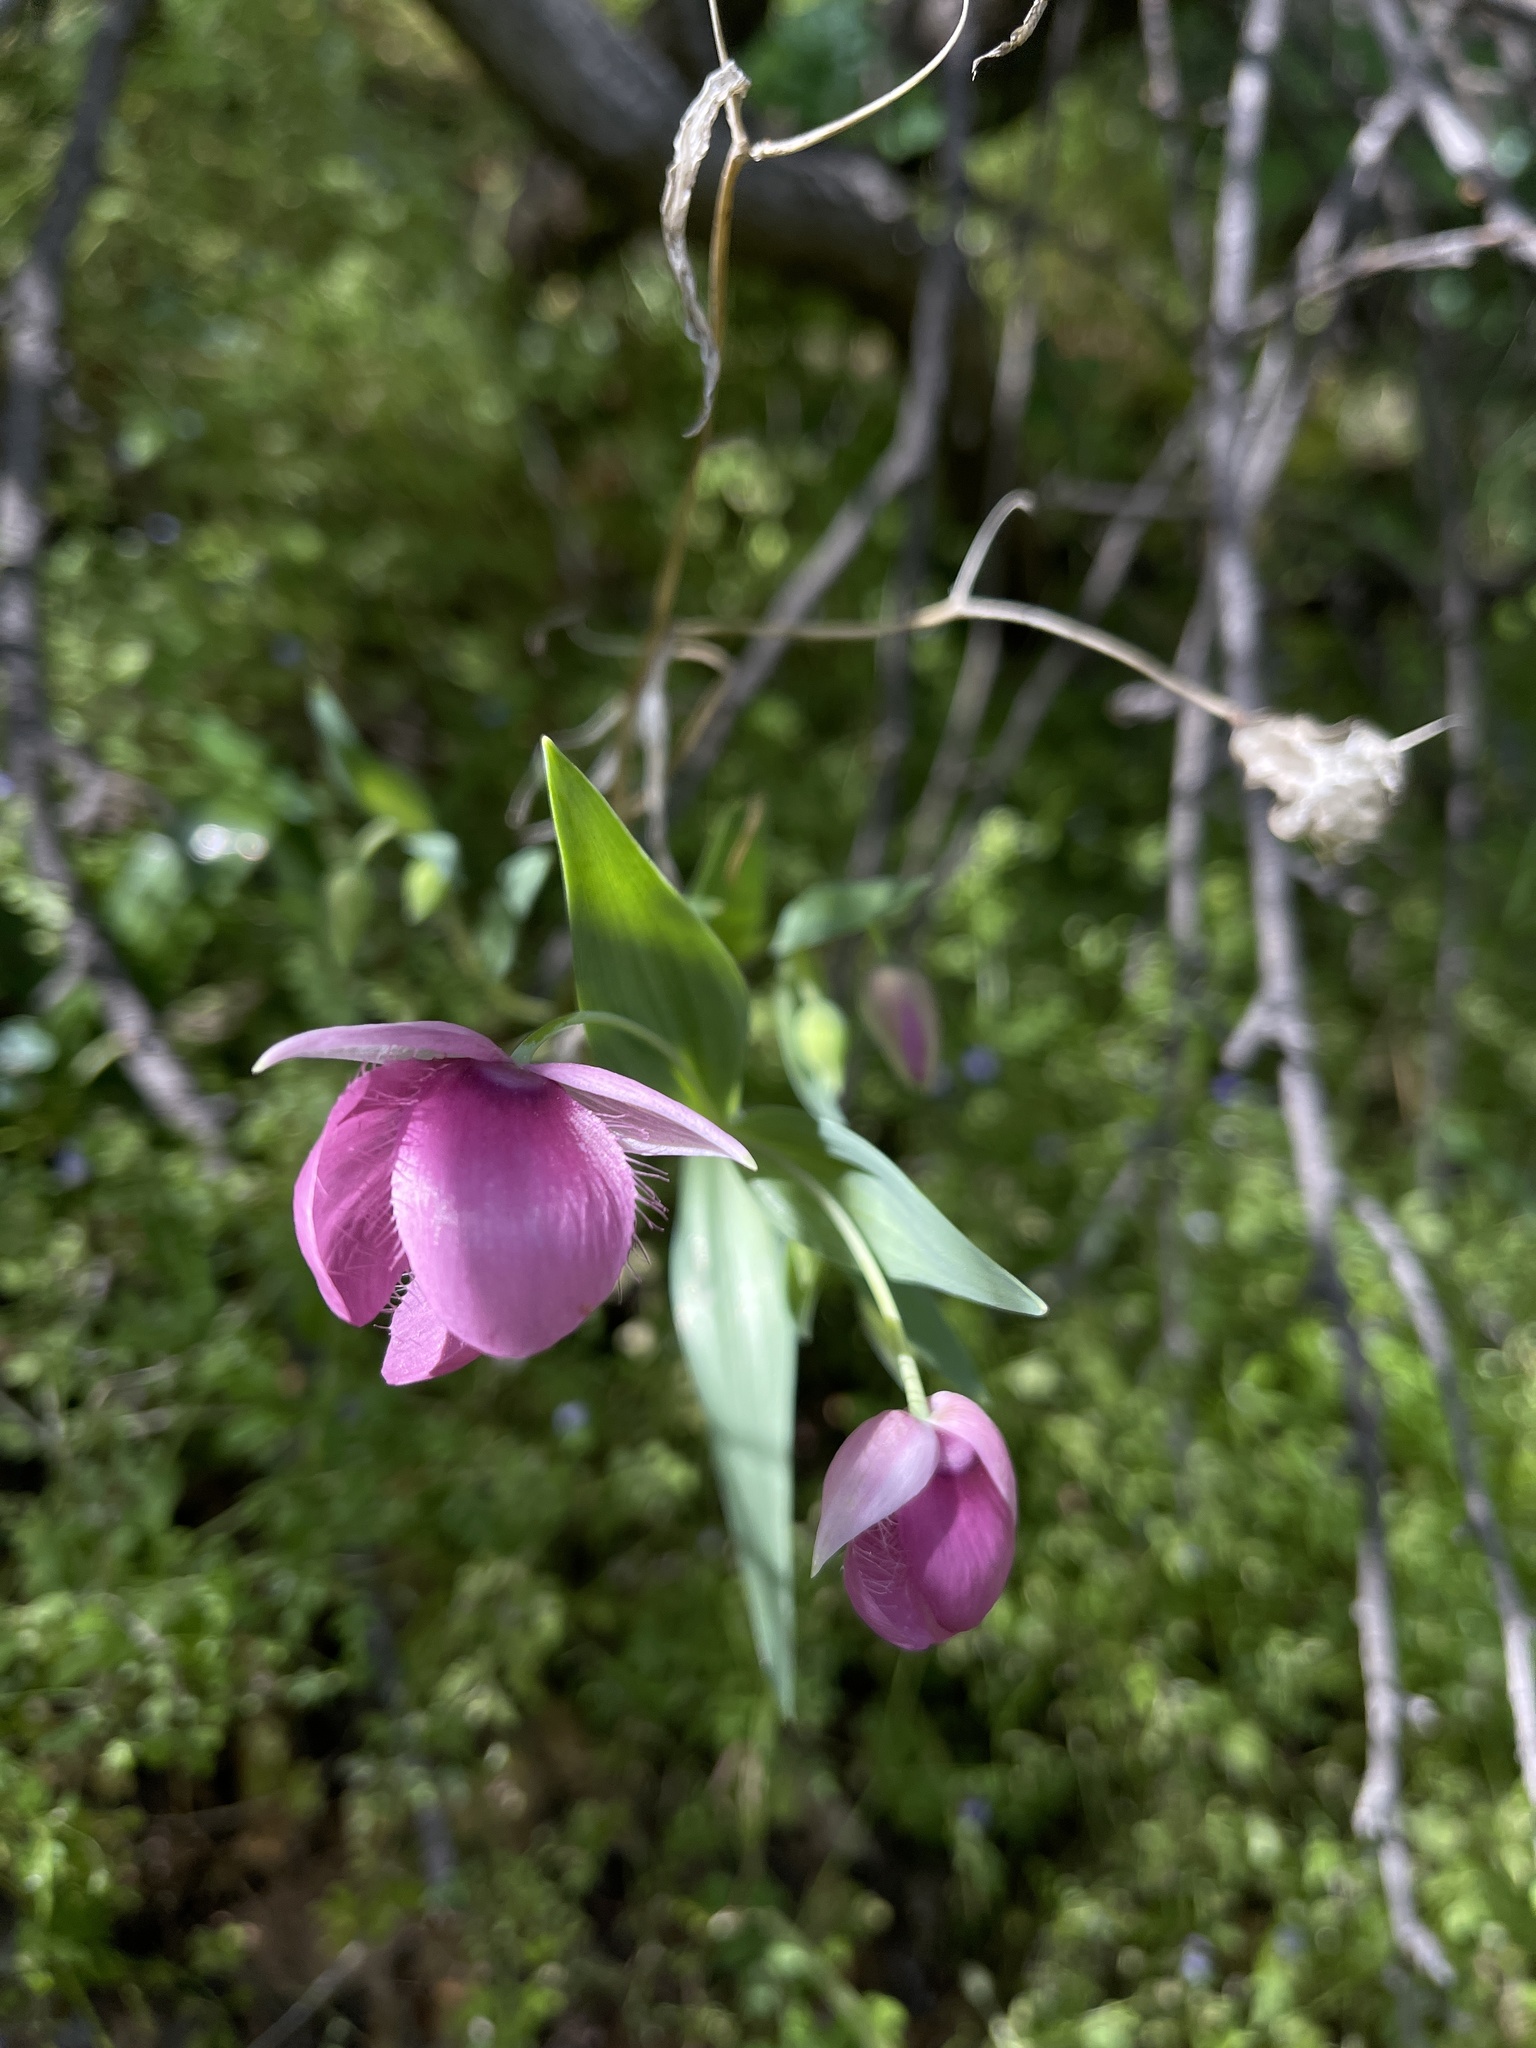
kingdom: Plantae
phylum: Tracheophyta
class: Liliopsida
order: Liliales
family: Liliaceae
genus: Calochortus
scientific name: Calochortus amoenus
